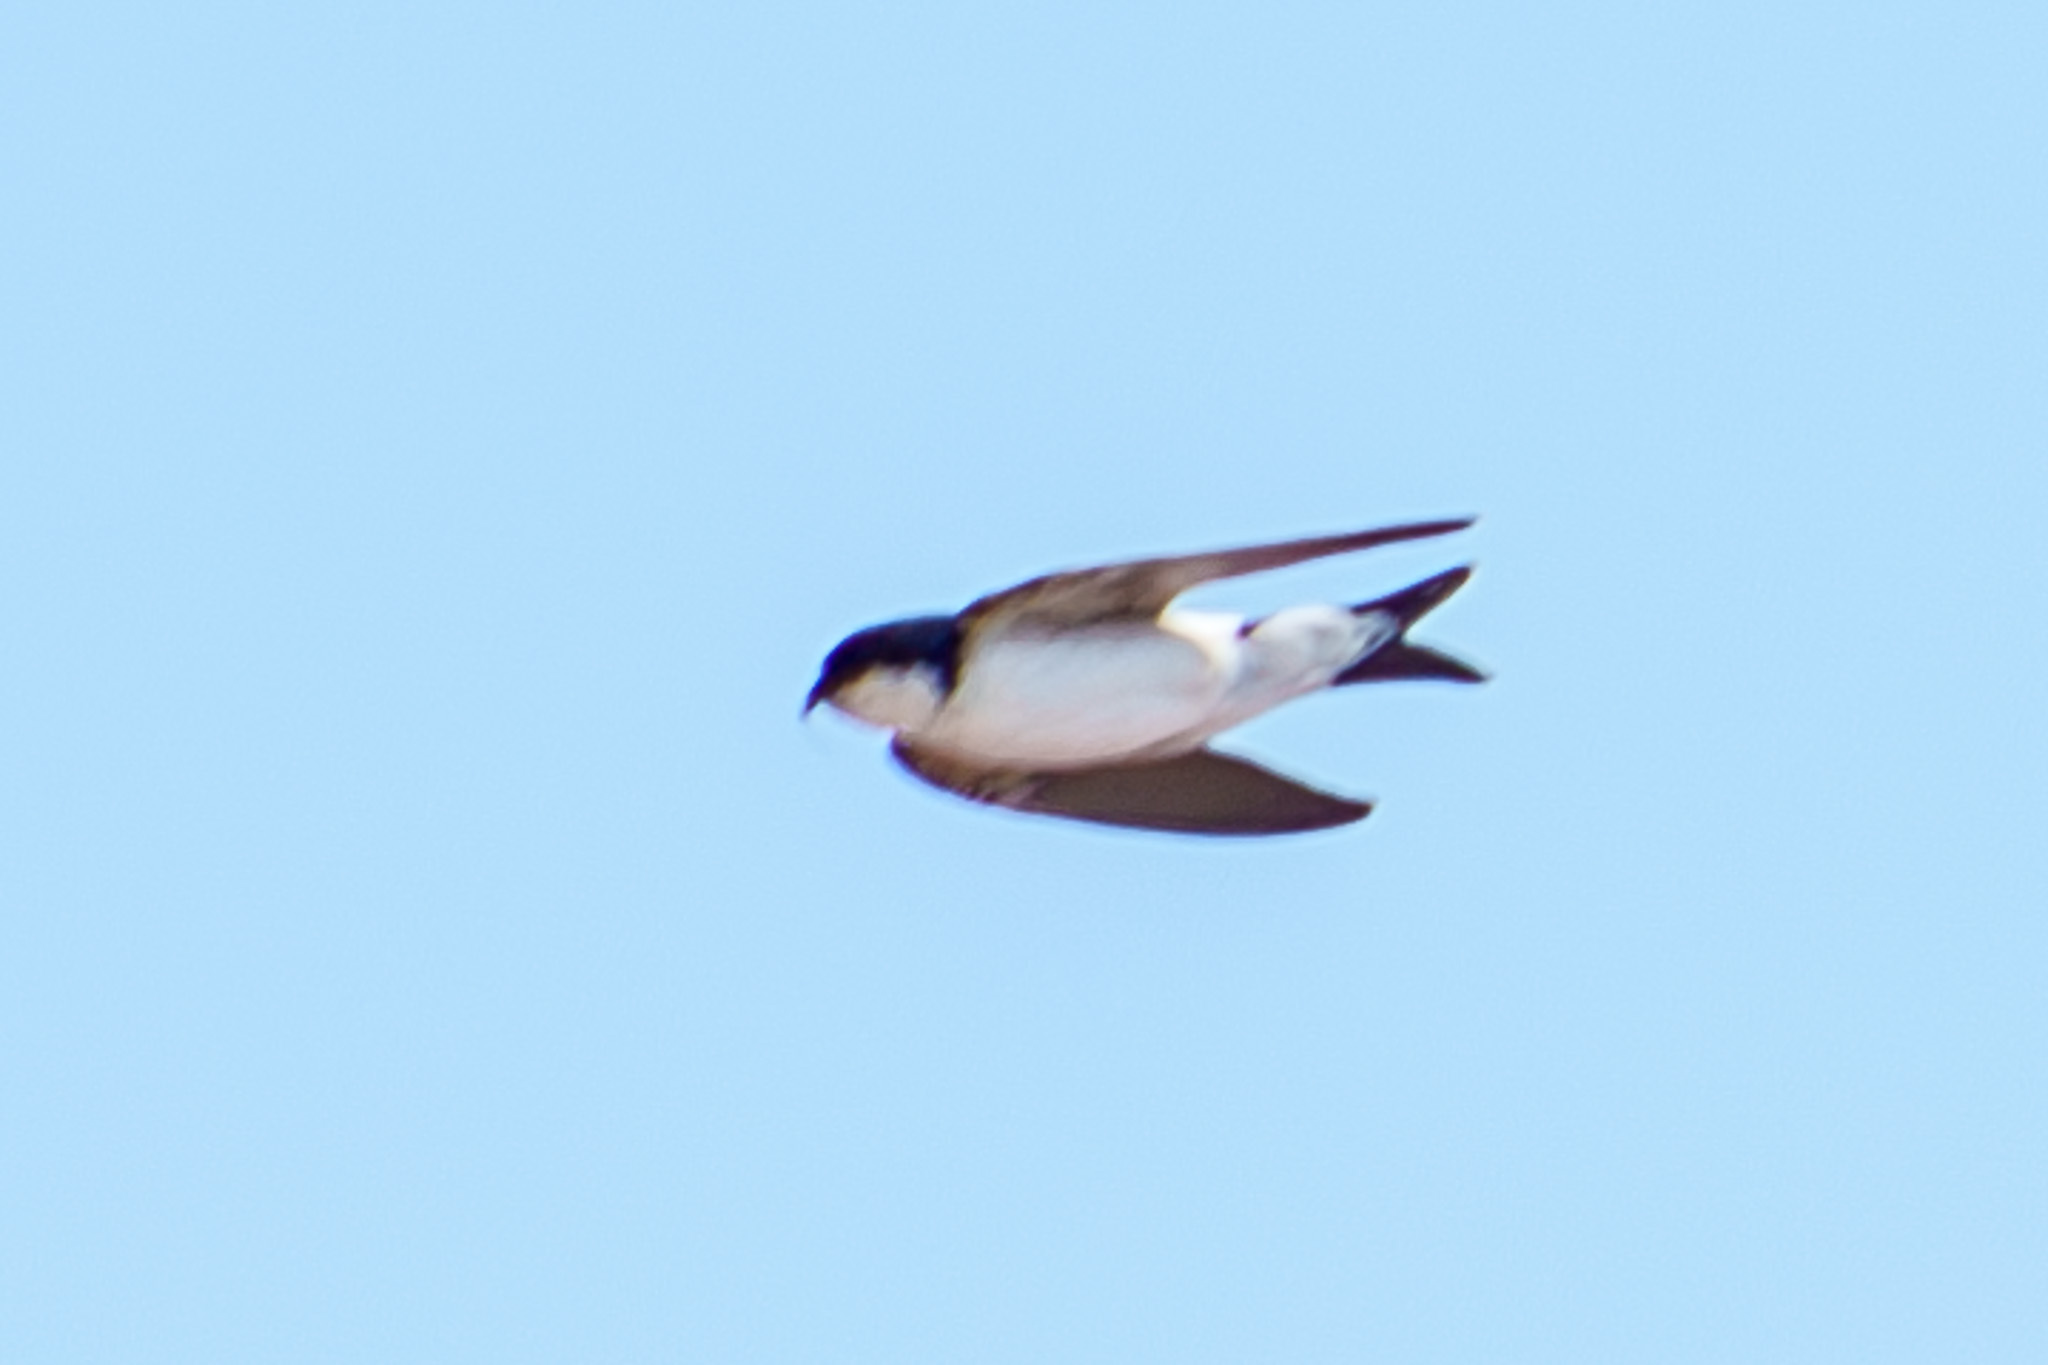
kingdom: Animalia
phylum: Chordata
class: Aves
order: Passeriformes
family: Hirundinidae
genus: Delichon
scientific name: Delichon urbicum
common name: Common house martin
